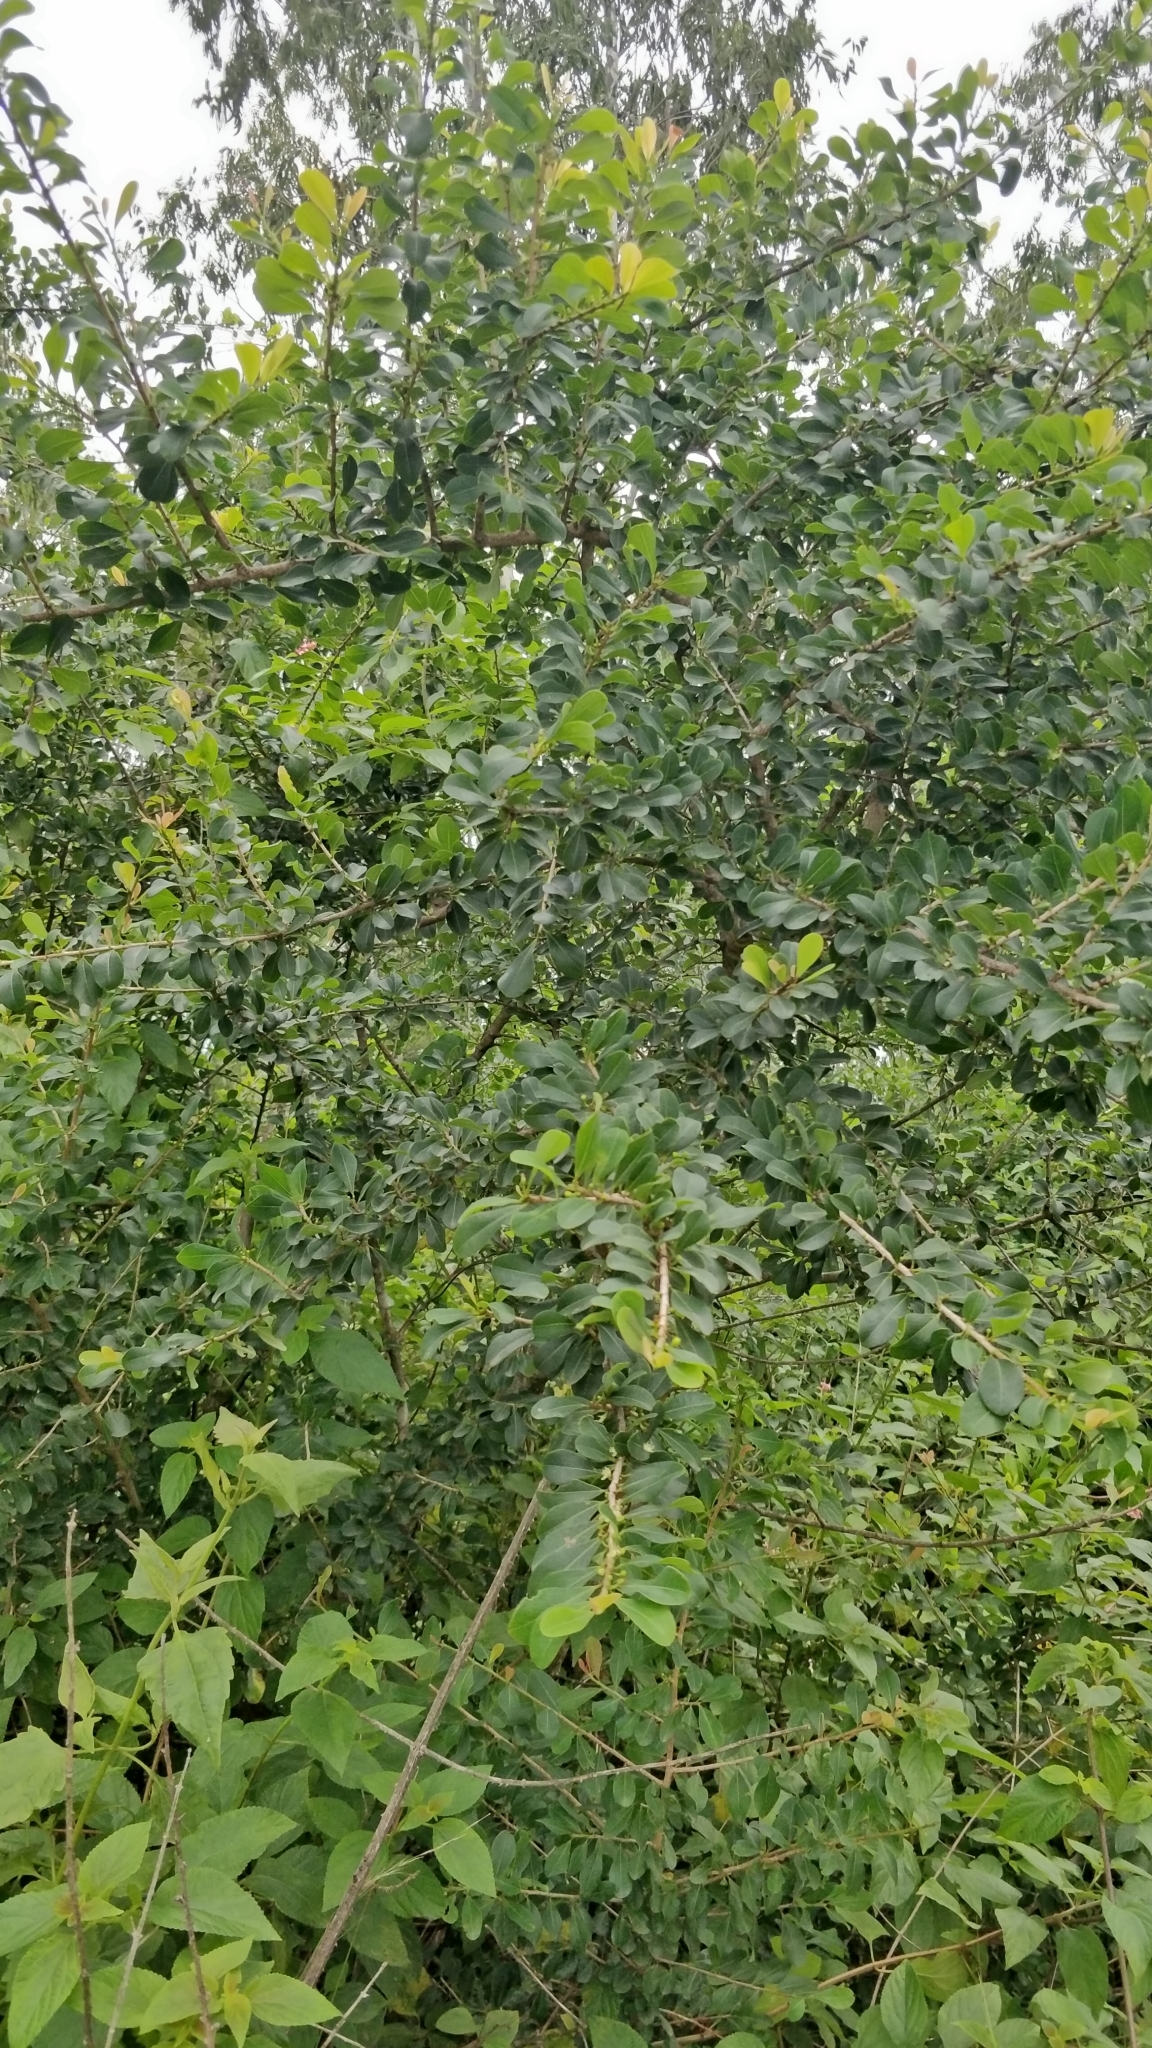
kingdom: Plantae
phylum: Tracheophyta
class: Magnoliopsida
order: Malpighiales
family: Erythroxylaceae
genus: Erythroxylum
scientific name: Erythroxylum monogynum
